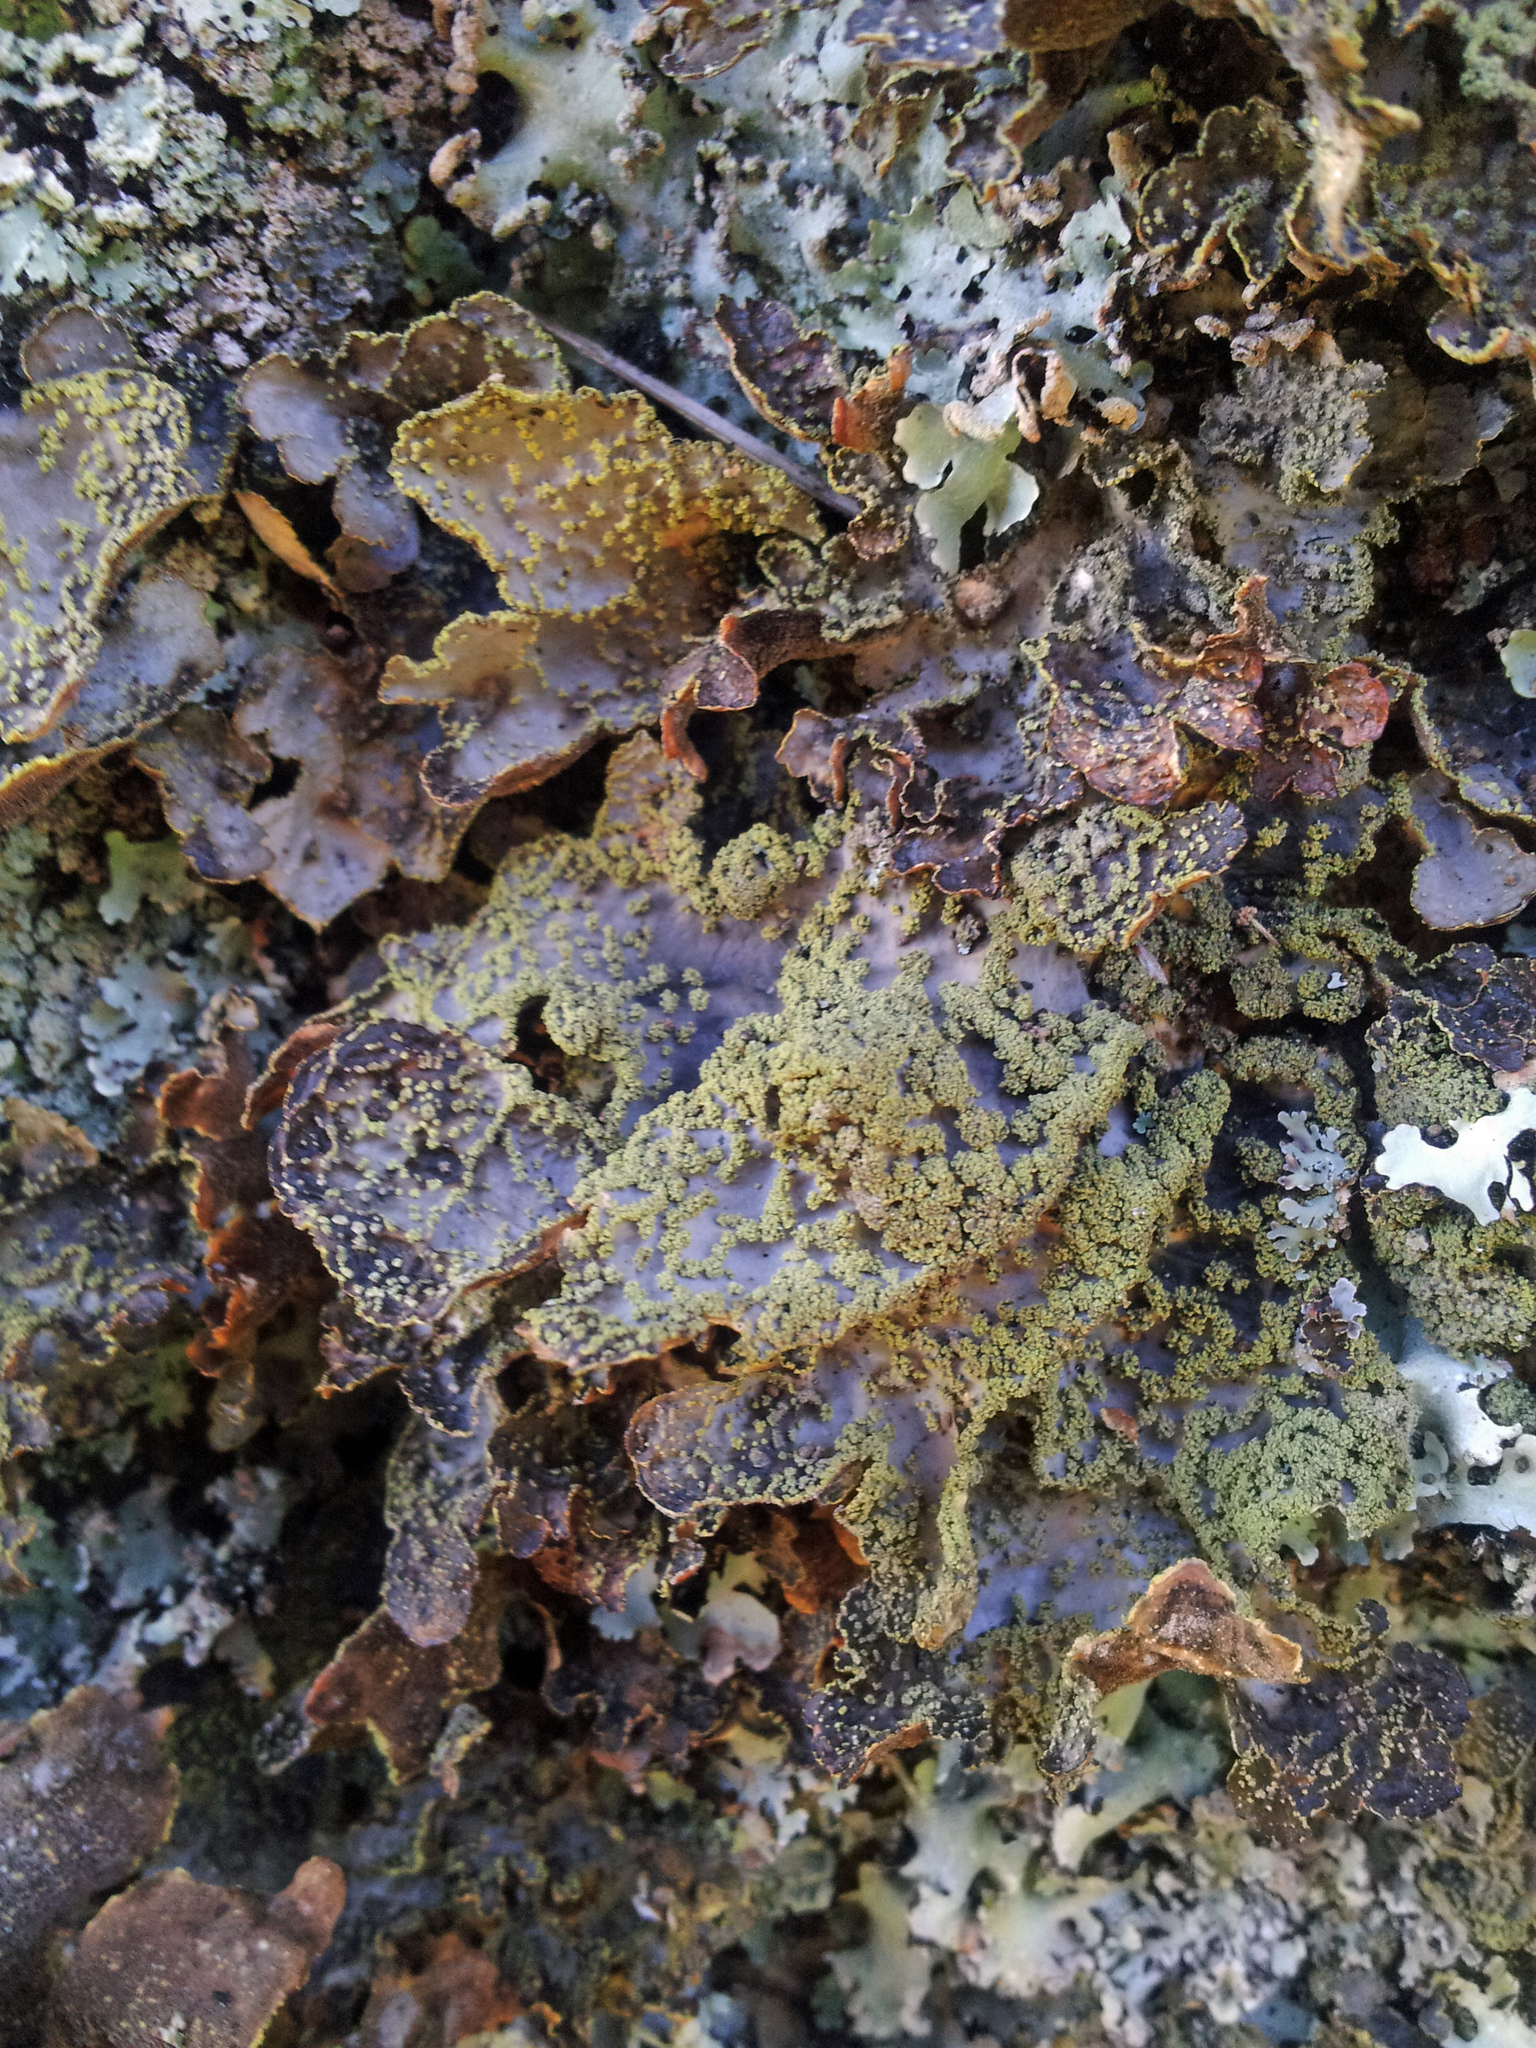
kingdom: Fungi
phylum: Ascomycota
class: Lecanoromycetes
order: Peltigerales
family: Lobariaceae
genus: Pseudocyphellaria
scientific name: Pseudocyphellaria crocata
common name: Golden specklebelly
